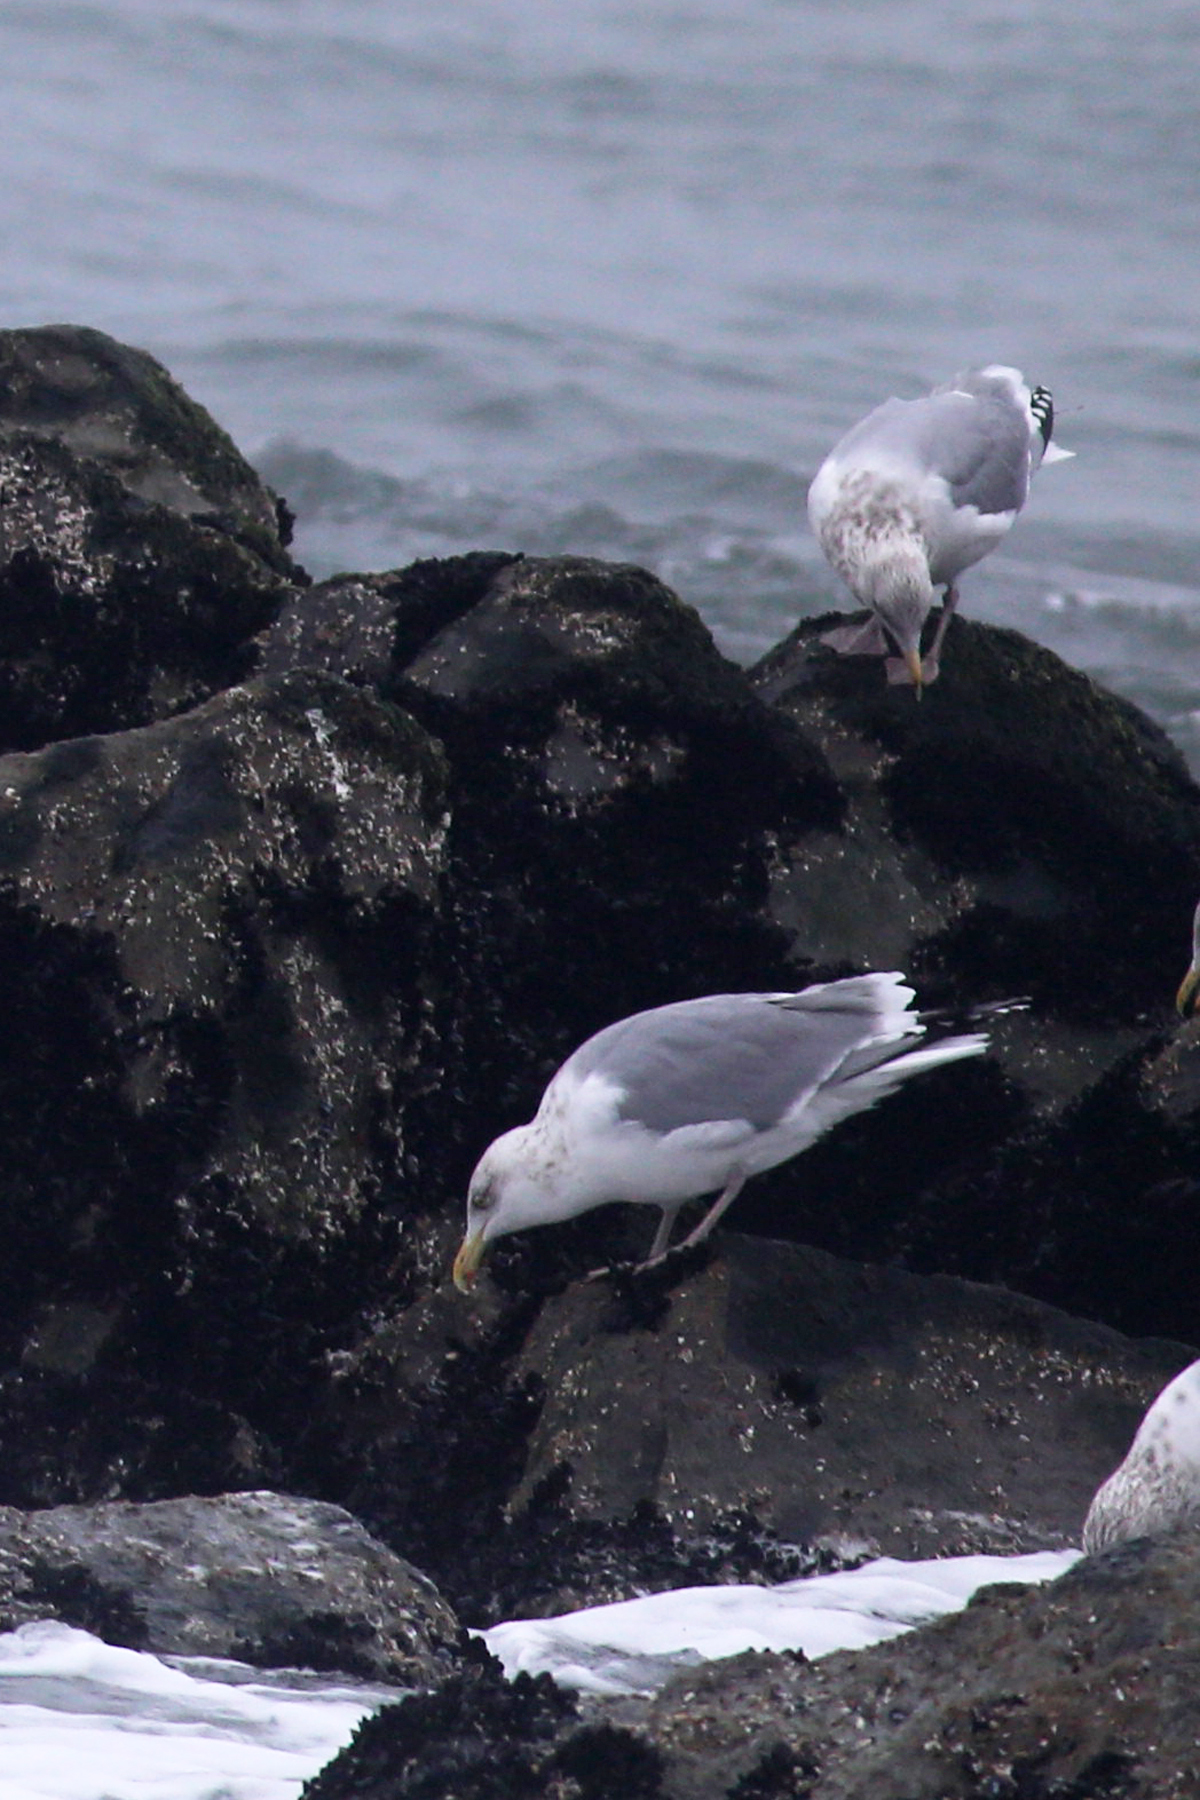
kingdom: Animalia
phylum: Chordata
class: Aves
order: Charadriiformes
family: Laridae
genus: Larus
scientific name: Larus argentatus
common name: Herring gull
